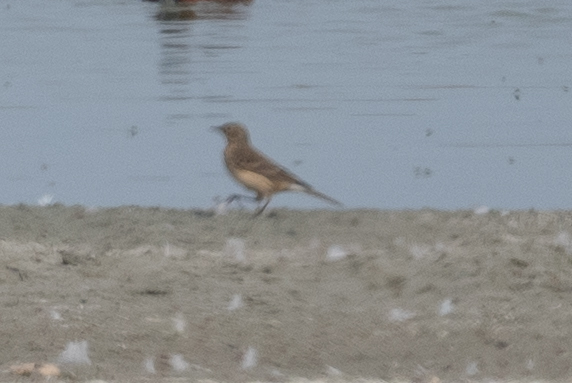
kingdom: Animalia
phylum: Chordata
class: Aves
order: Passeriformes
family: Motacillidae
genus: Anthus
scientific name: Anthus rubescens
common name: Buff-bellied pipit
